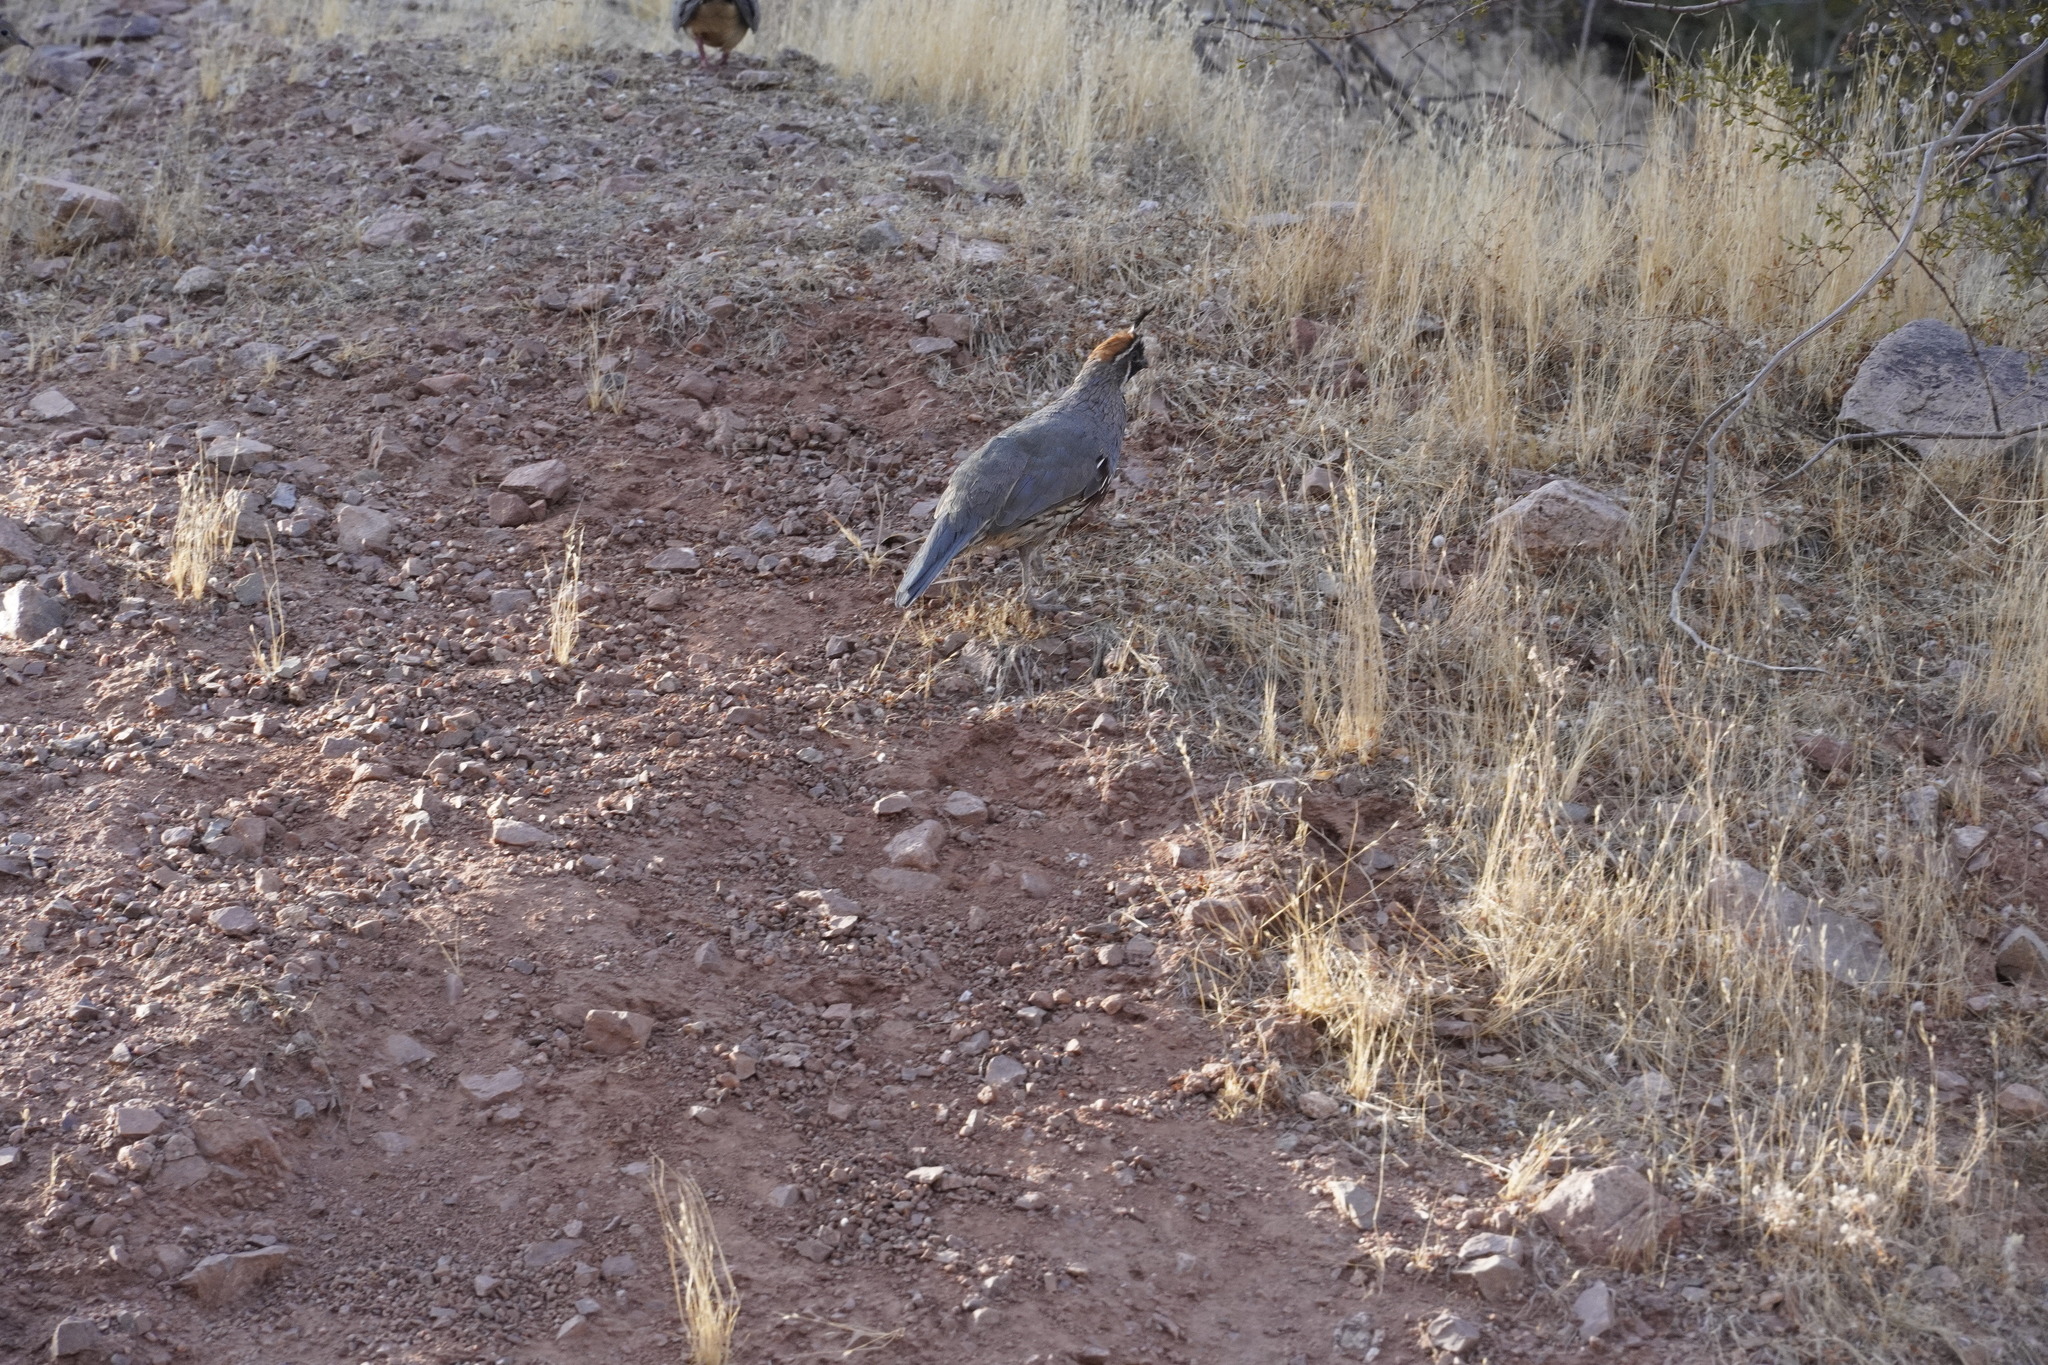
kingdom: Animalia
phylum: Chordata
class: Aves
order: Galliformes
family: Odontophoridae
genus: Callipepla
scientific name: Callipepla gambelii
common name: Gambel's quail
